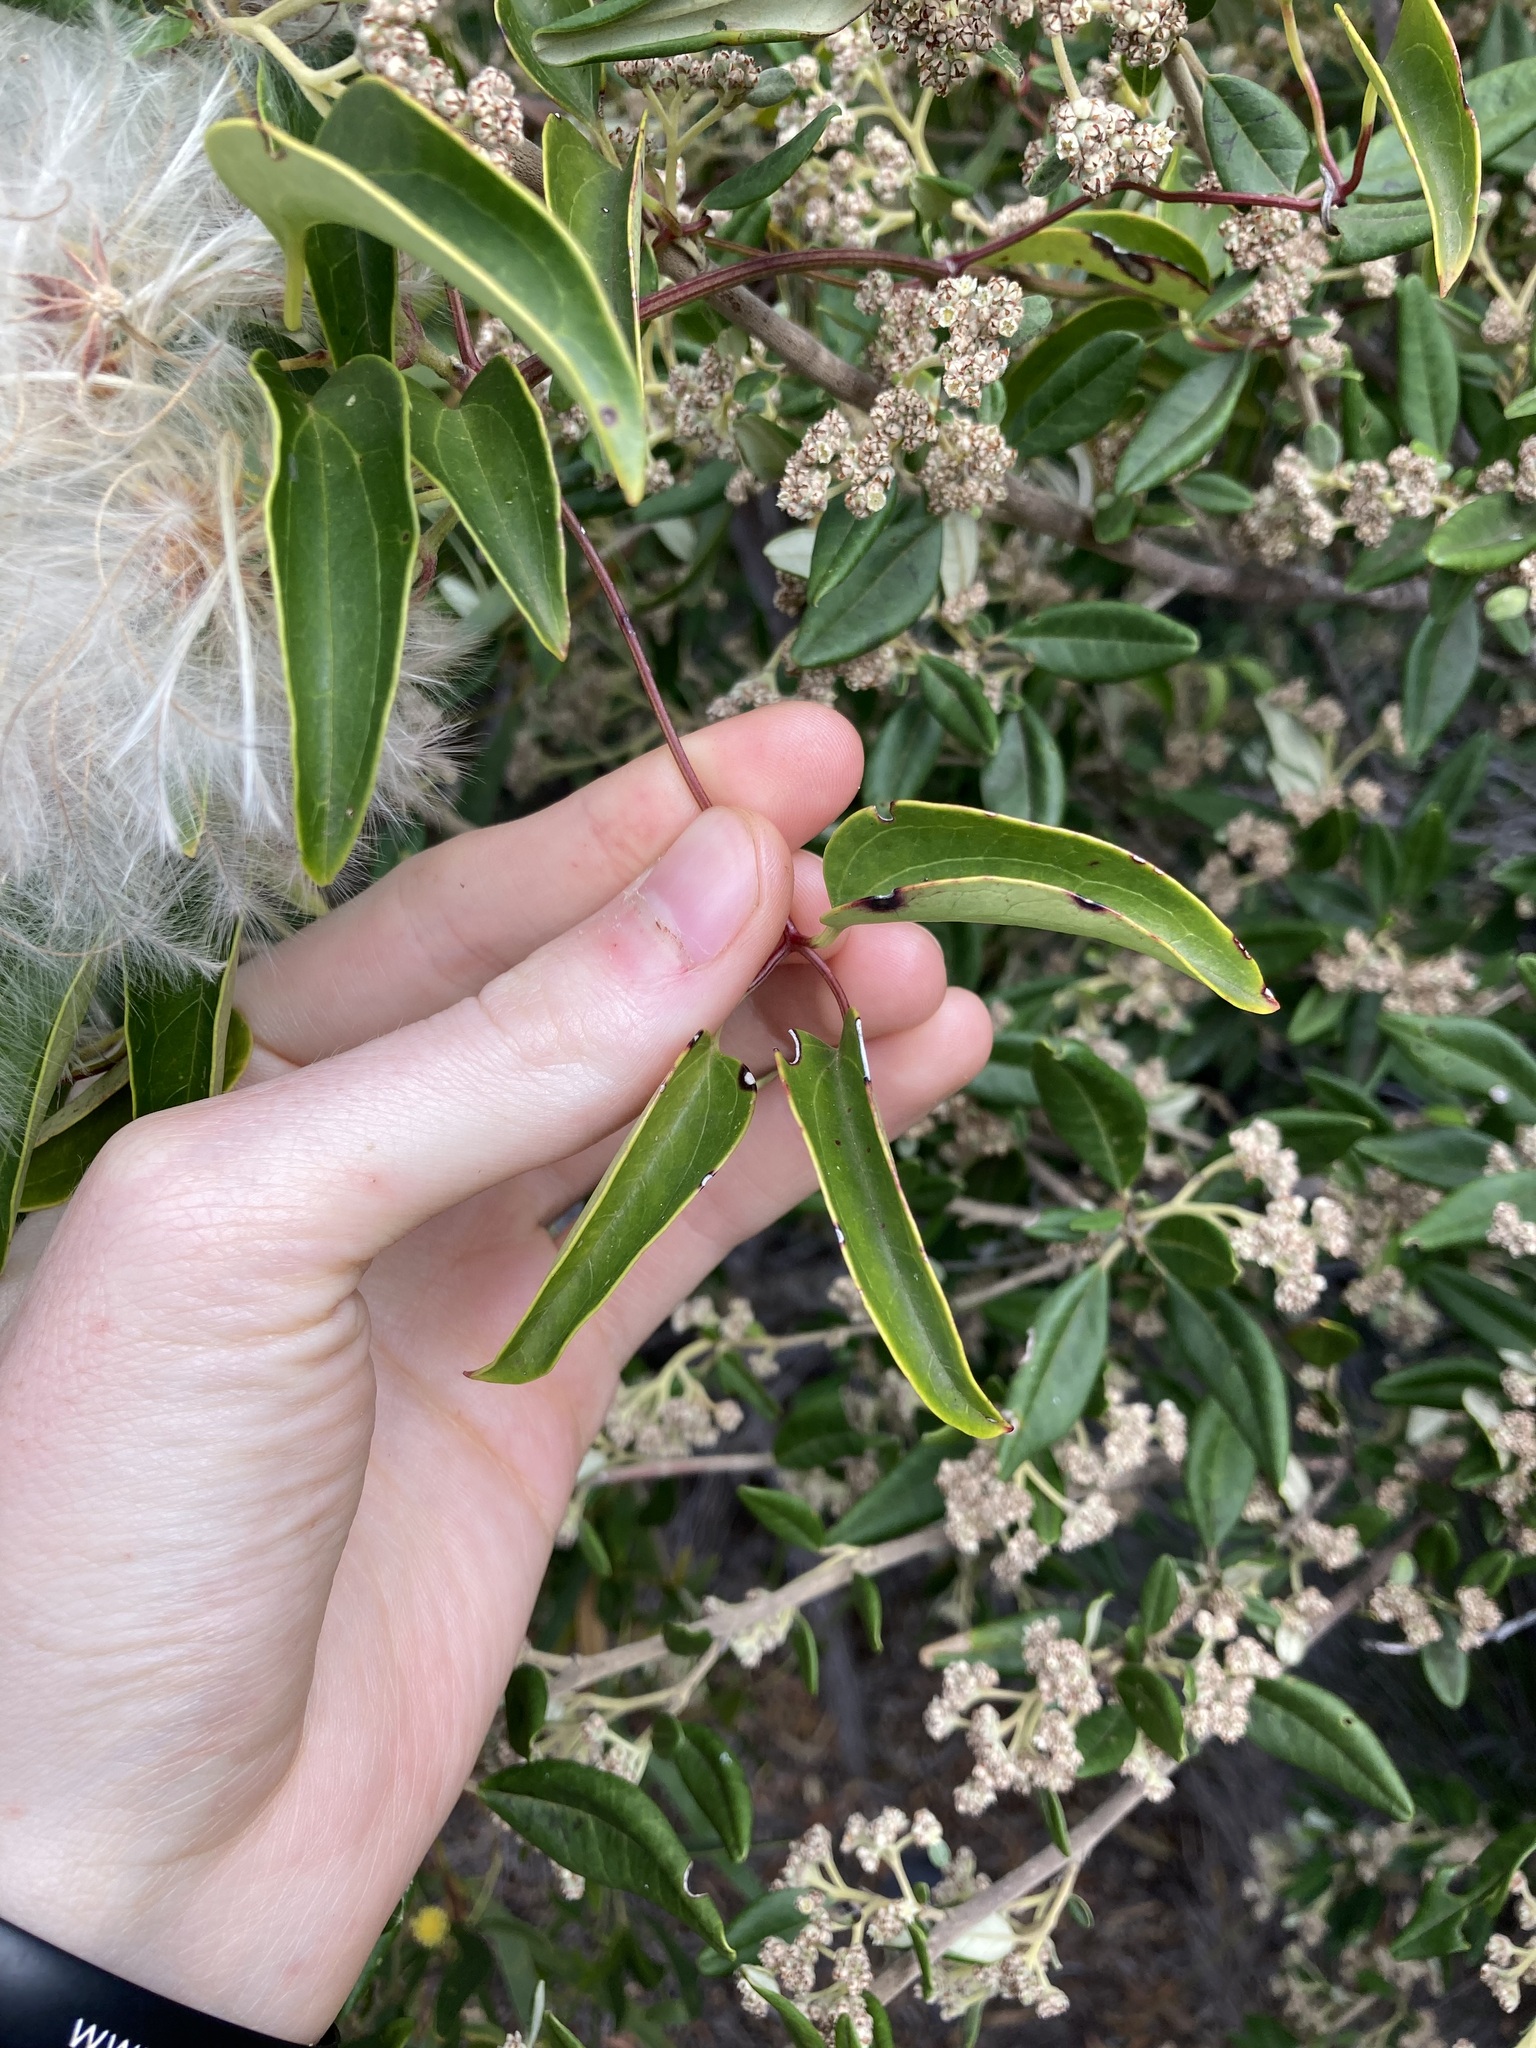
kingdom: Plantae
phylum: Tracheophyta
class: Magnoliopsida
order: Ranunculales
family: Ranunculaceae
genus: Clematis
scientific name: Clematis pubescens
